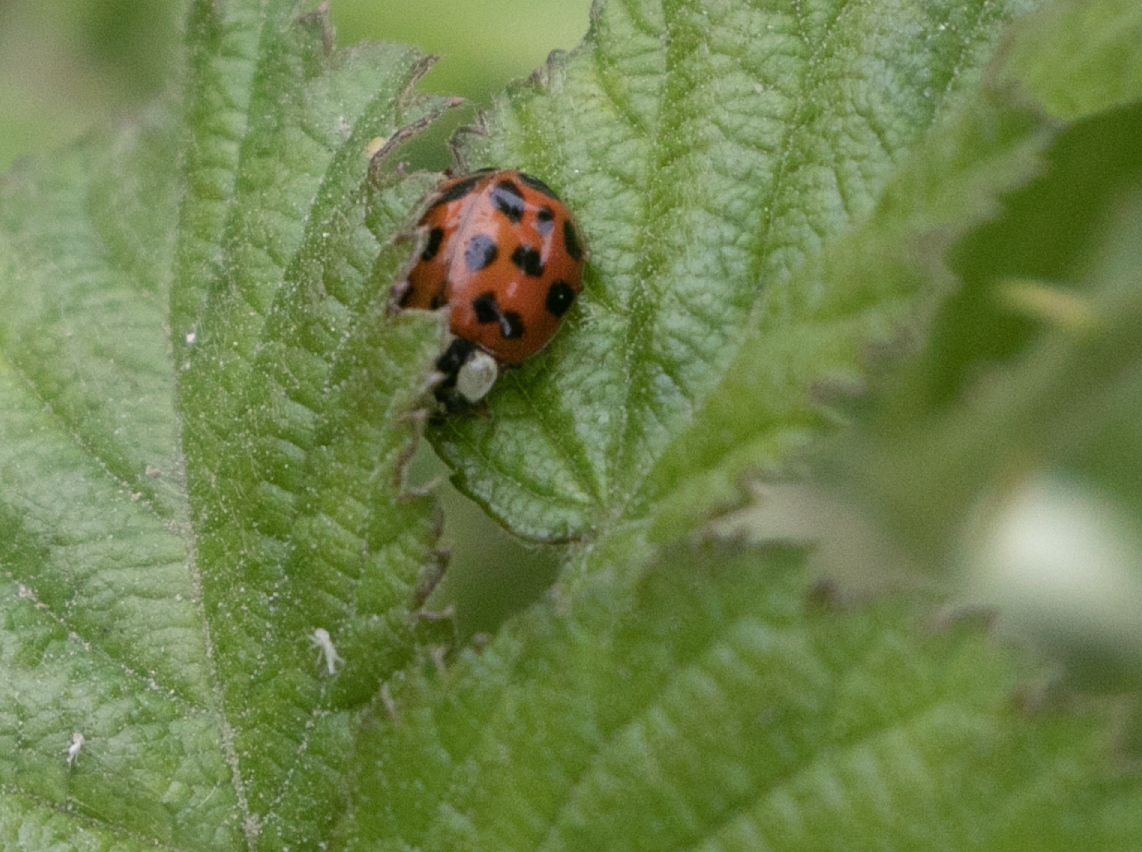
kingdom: Animalia
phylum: Arthropoda
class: Insecta
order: Coleoptera
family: Coccinellidae
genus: Harmonia
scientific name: Harmonia axyridis
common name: Harlequin ladybird
